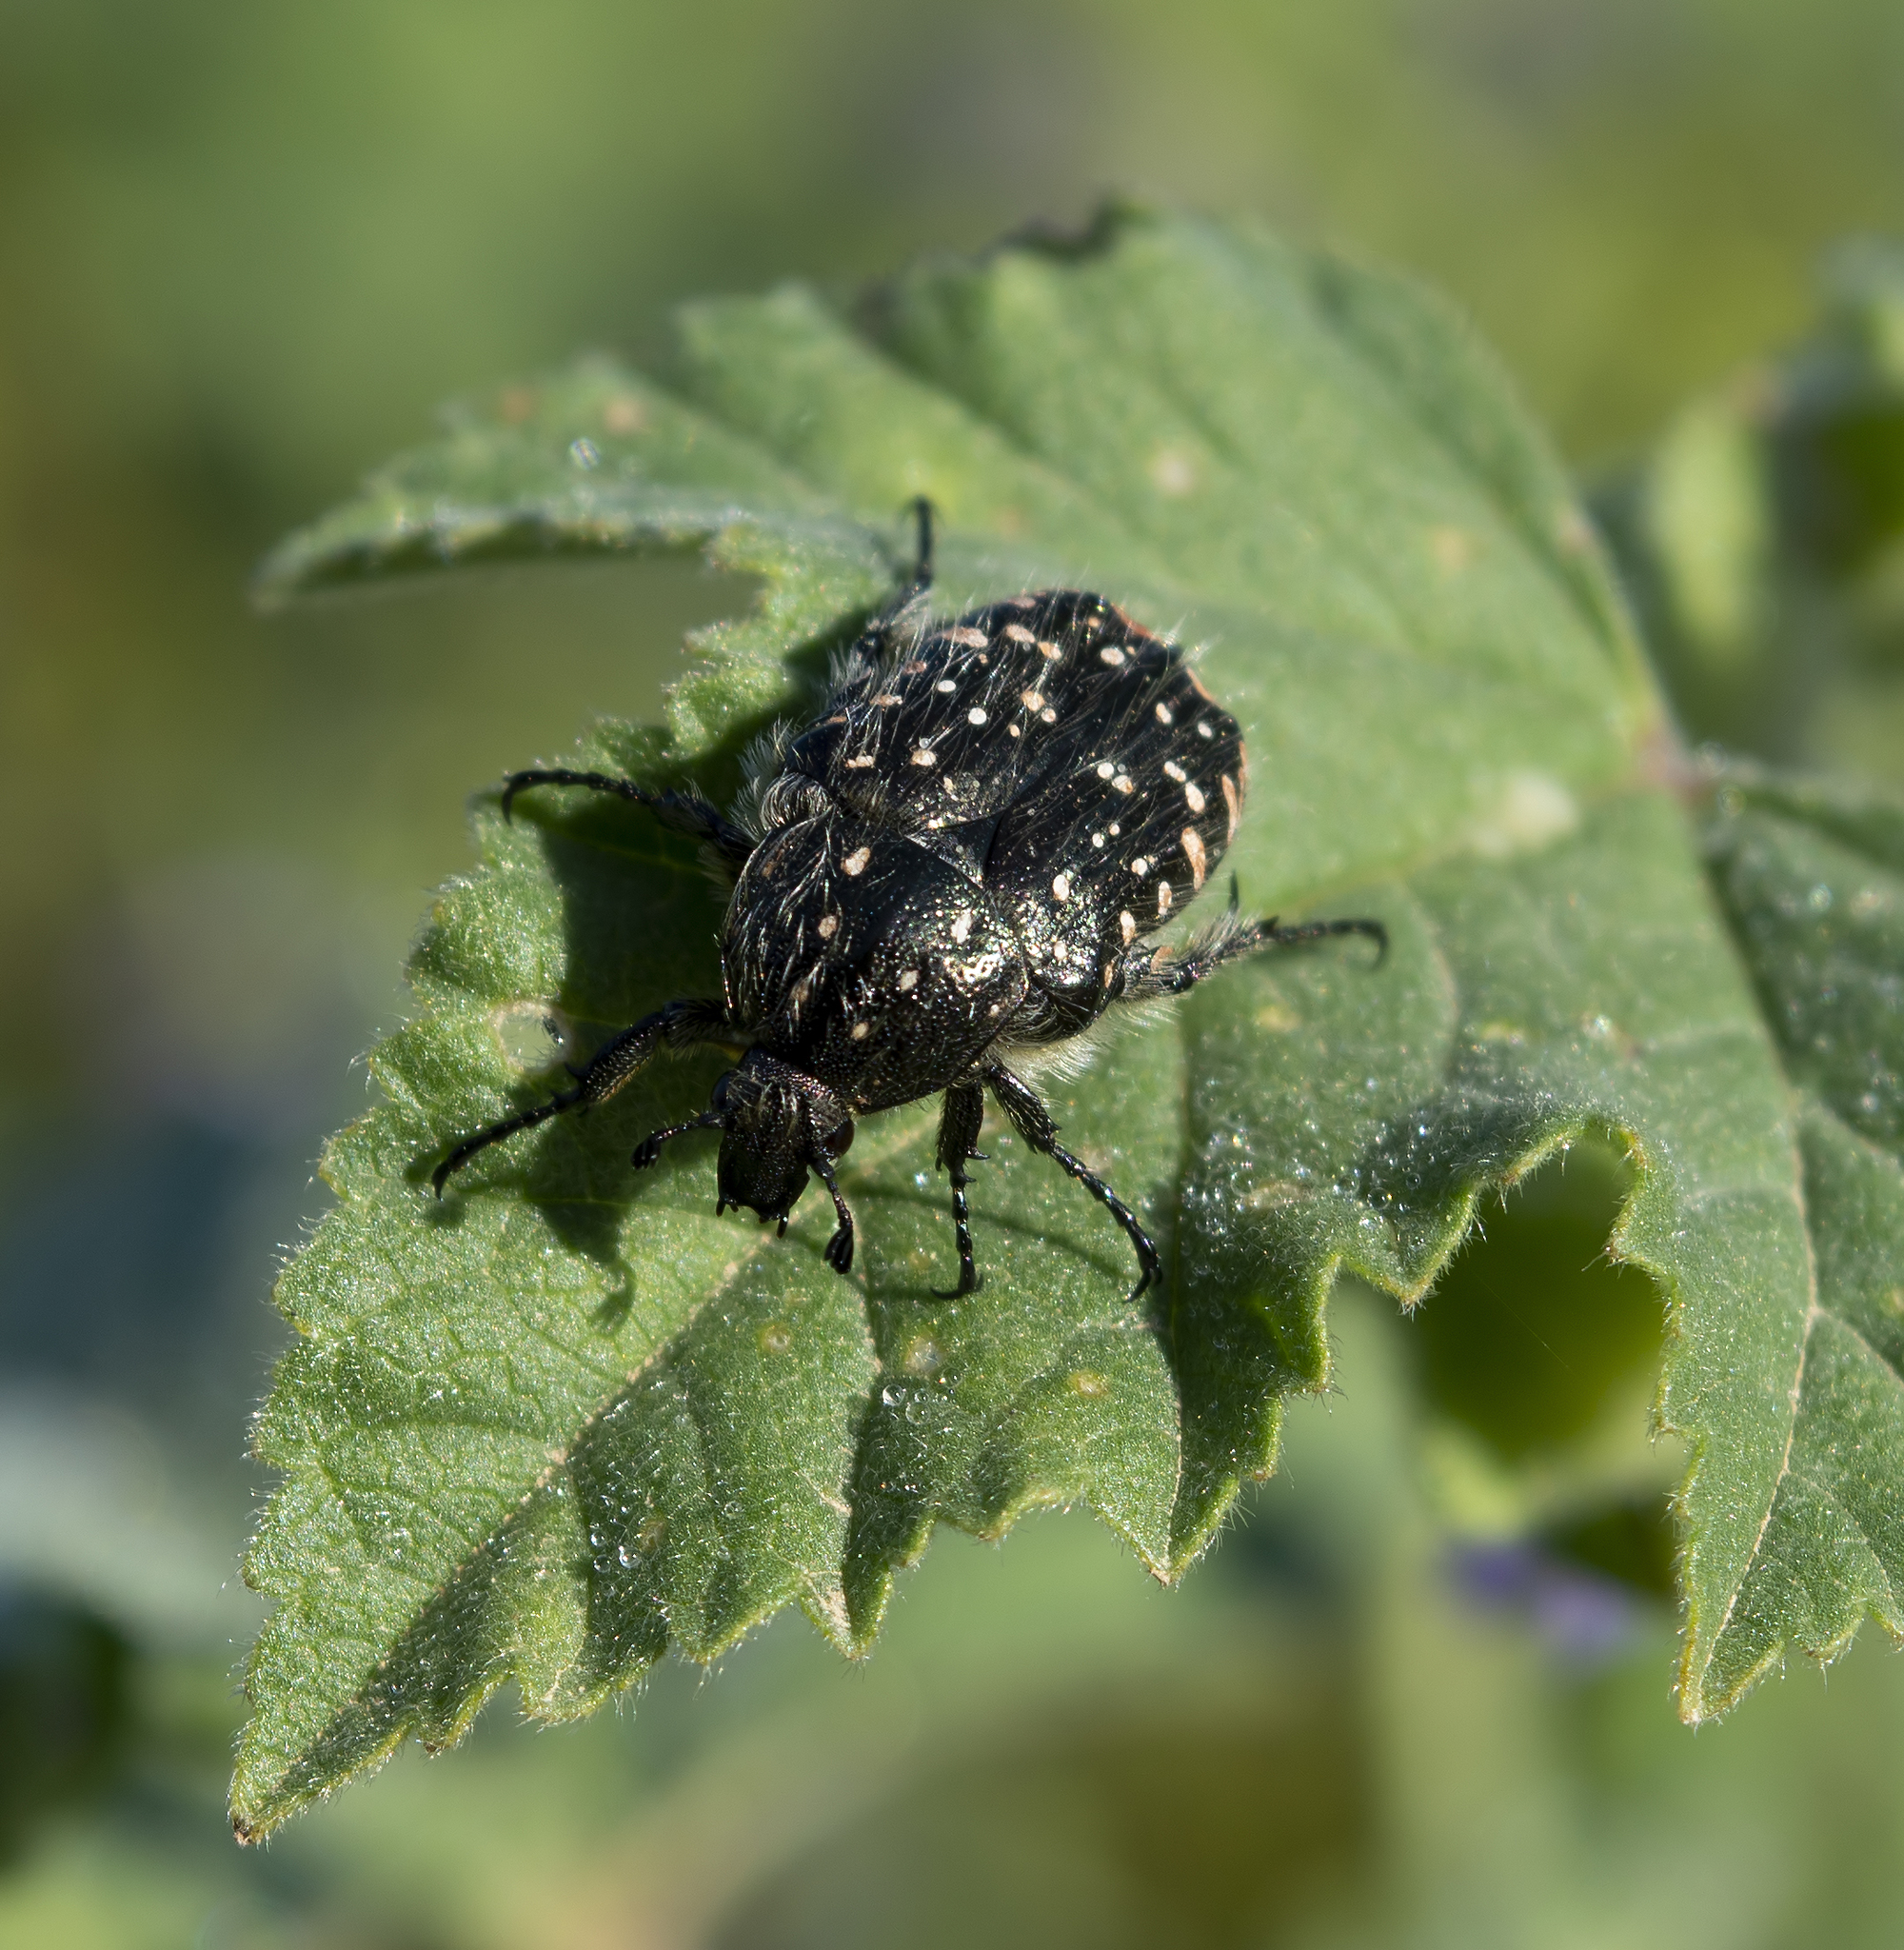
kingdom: Animalia
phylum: Arthropoda
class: Insecta
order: Coleoptera
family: Scarabaeidae
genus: Oxythyrea
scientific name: Oxythyrea funesta
